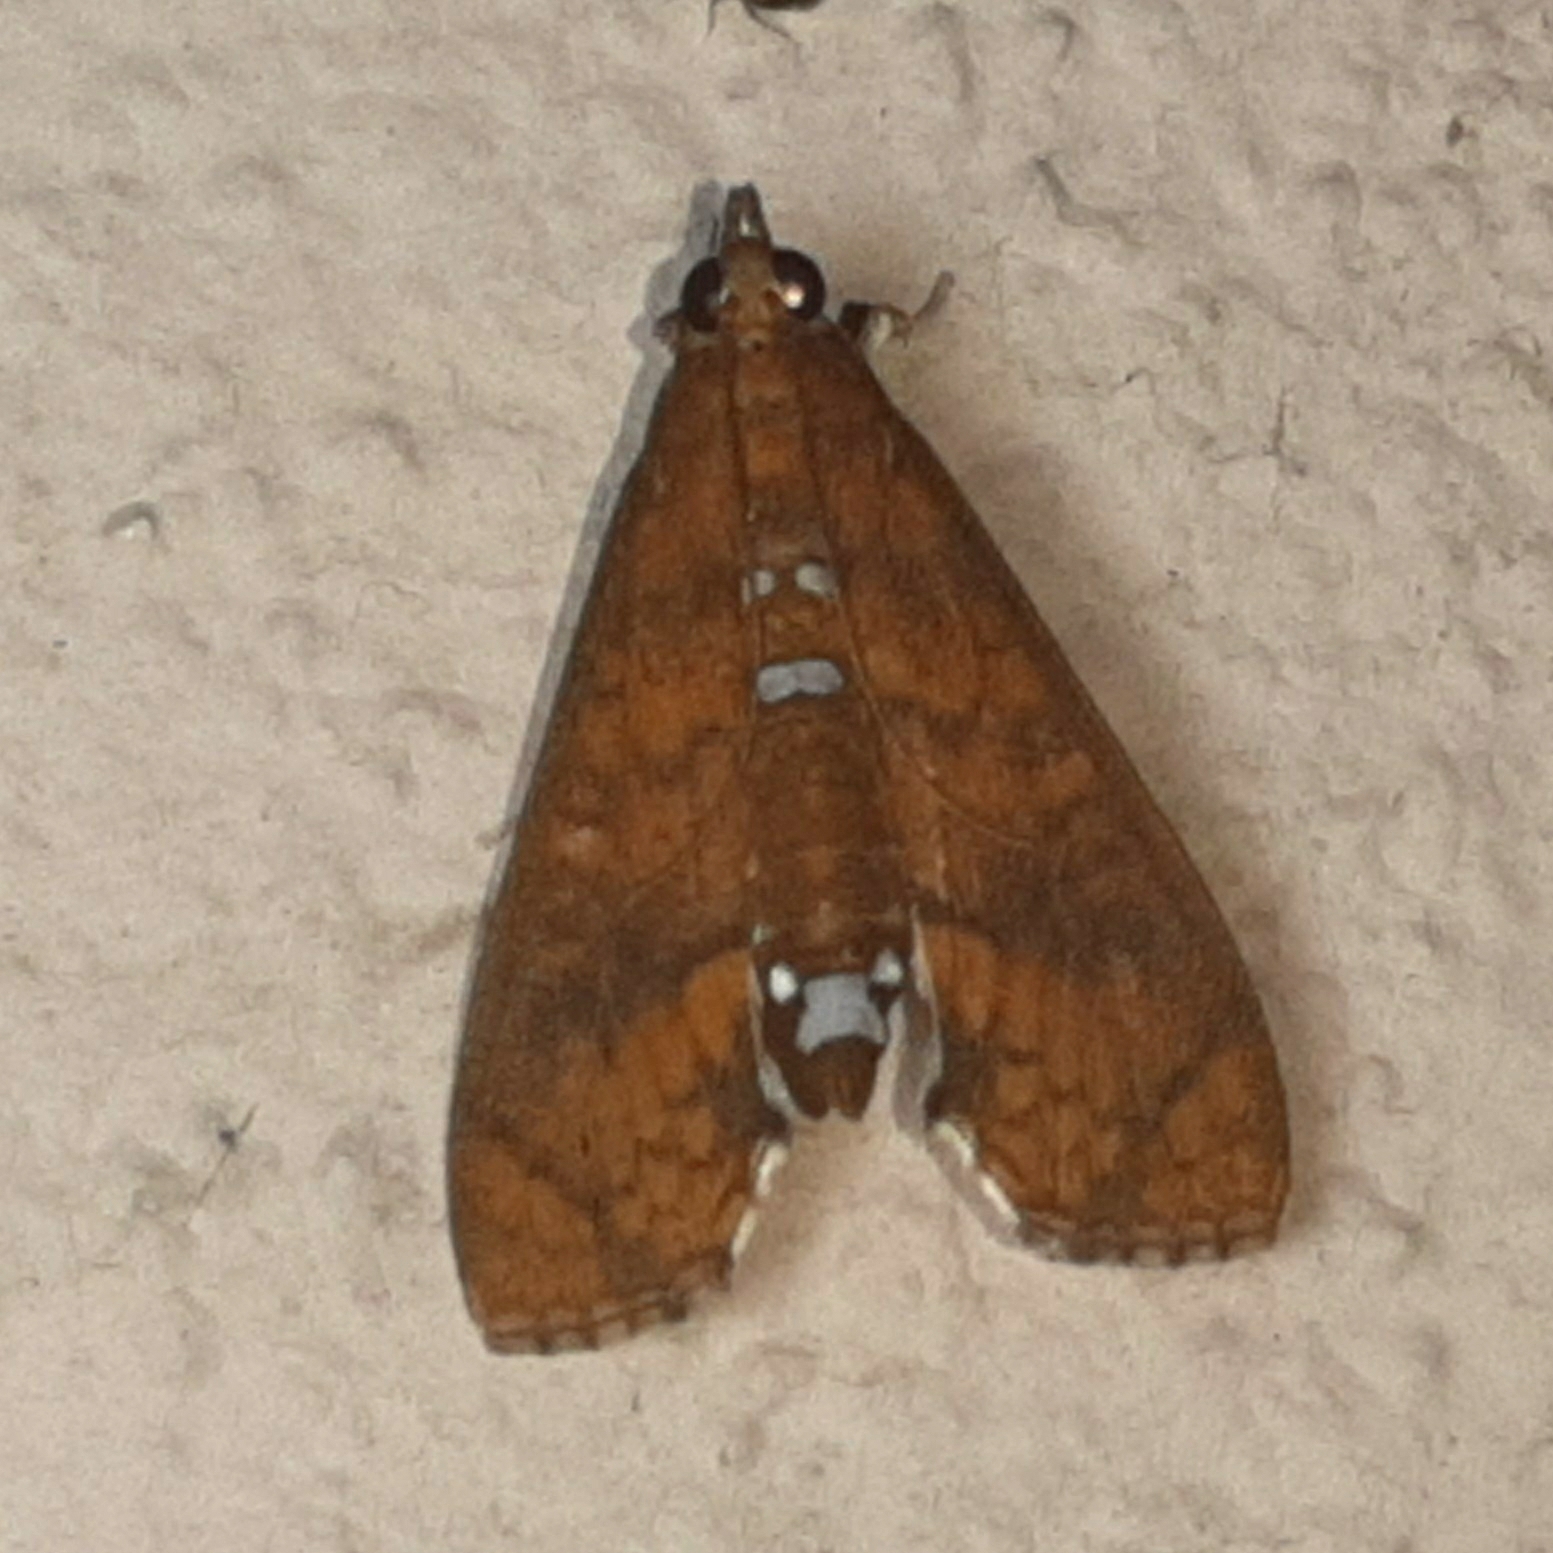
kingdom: Animalia
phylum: Arthropoda
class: Insecta
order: Lepidoptera
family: Crambidae
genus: Liopasia
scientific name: Liopasia ochracealis
